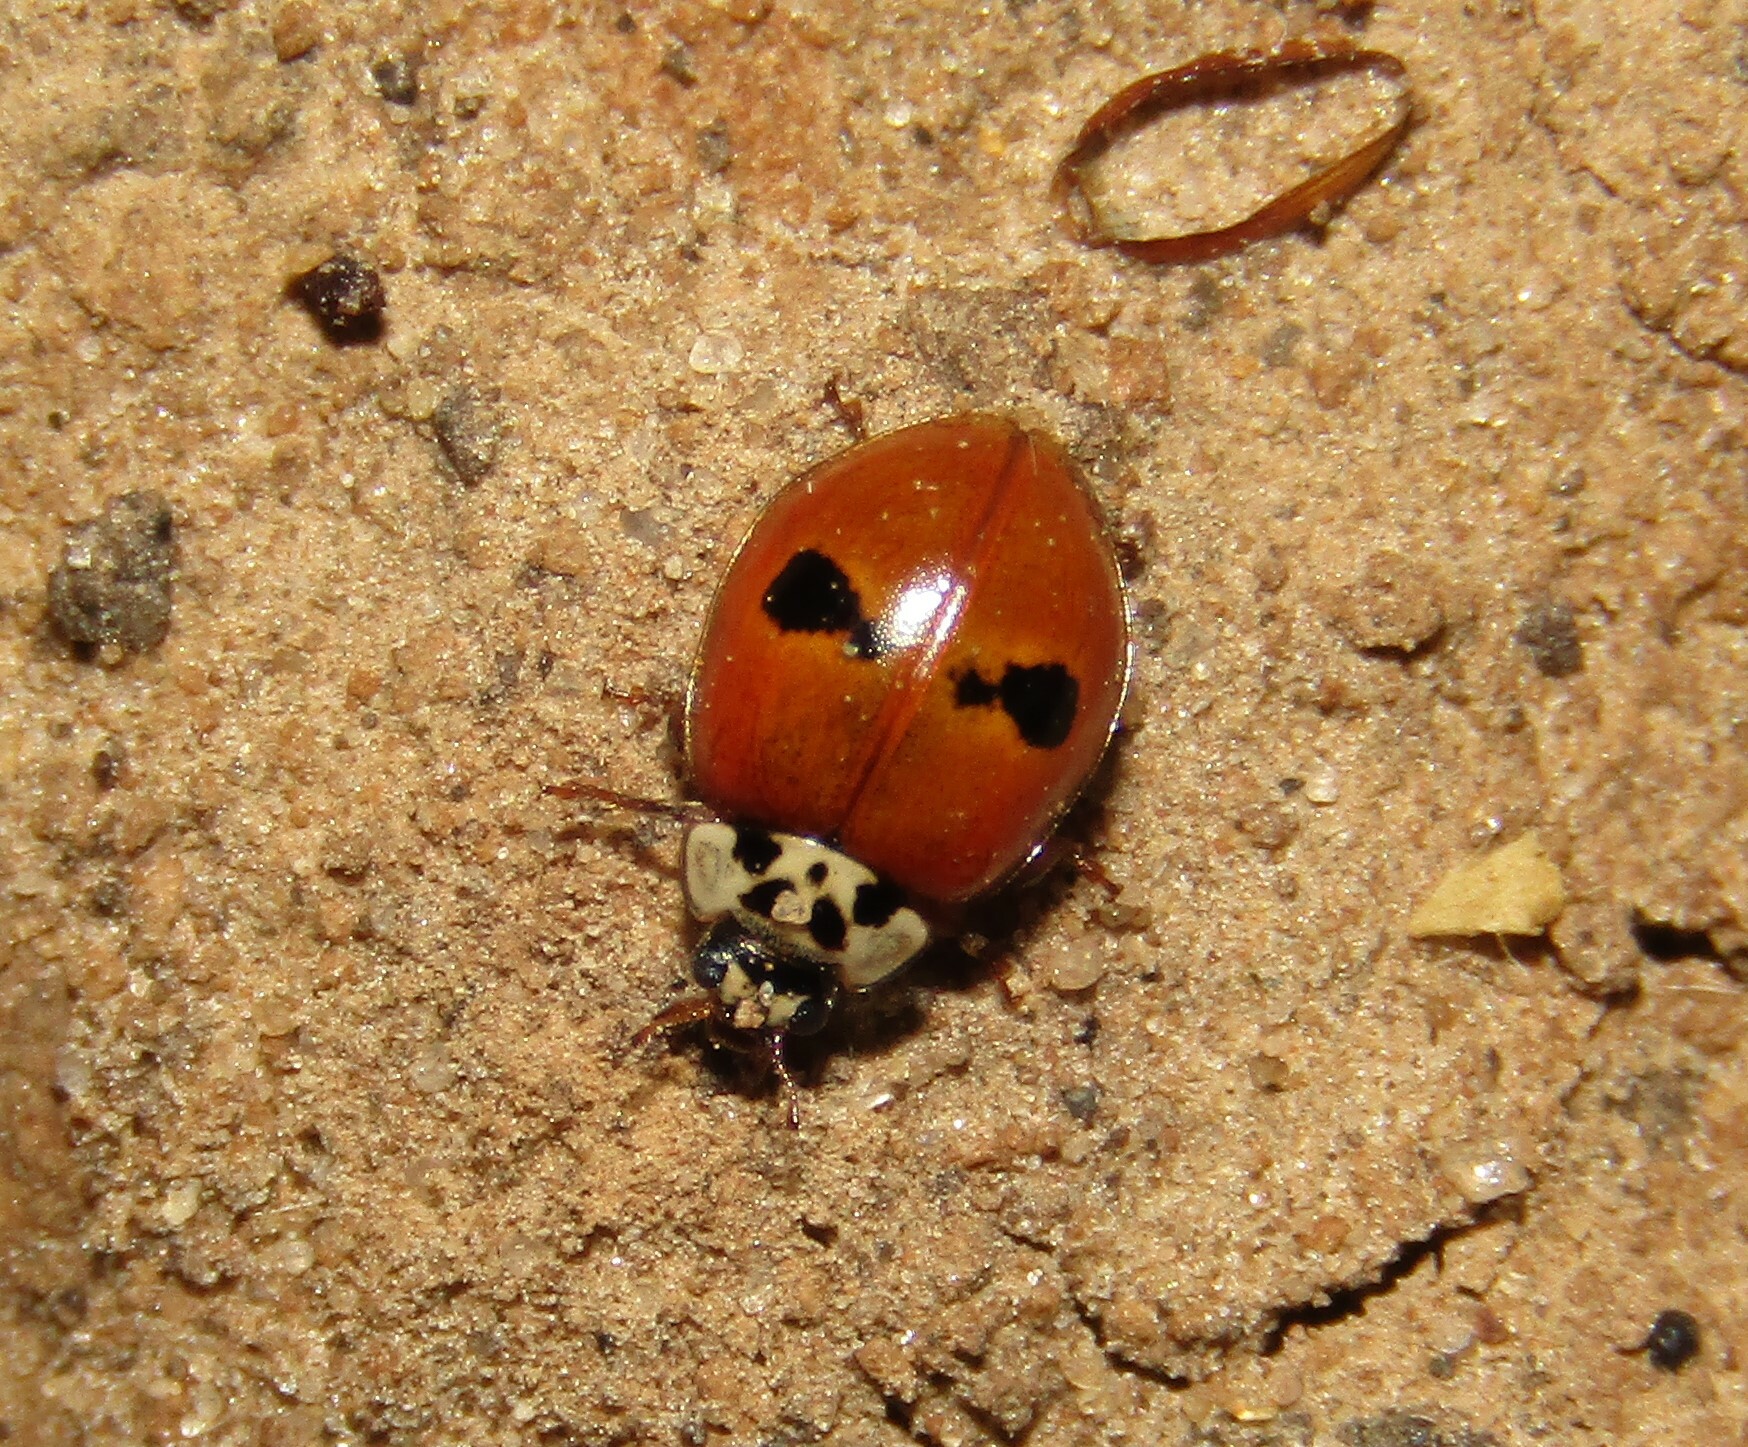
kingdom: Animalia
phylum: Arthropoda
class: Insecta
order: Coleoptera
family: Coccinellidae
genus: Adalia
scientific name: Adalia bipunctata
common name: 2-spot ladybird
